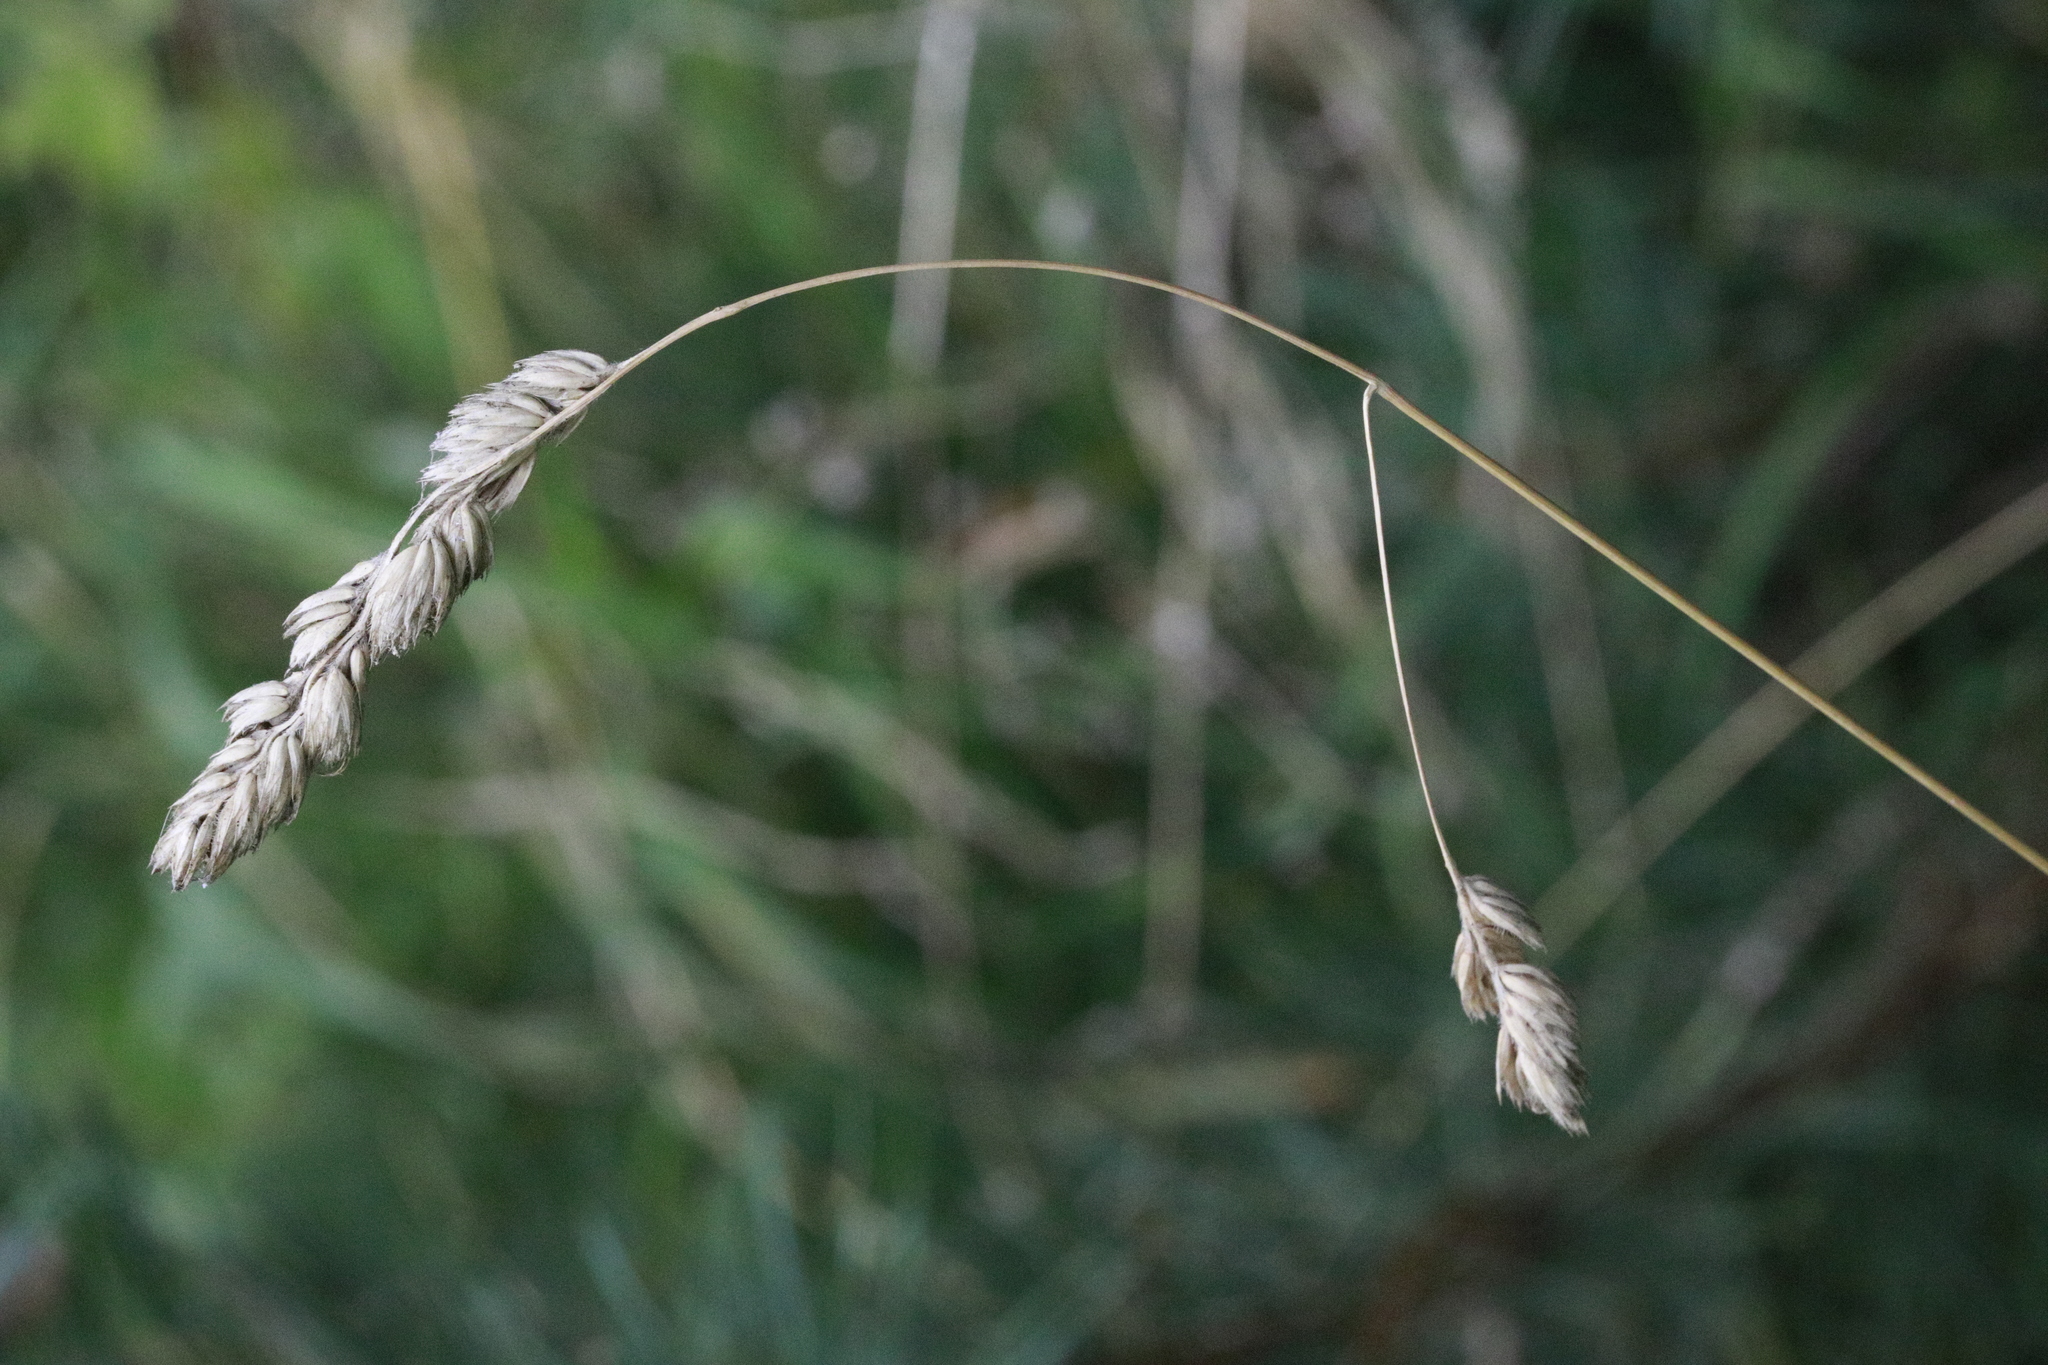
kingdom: Plantae
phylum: Tracheophyta
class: Liliopsida
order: Poales
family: Poaceae
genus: Dactylis
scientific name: Dactylis glomerata
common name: Orchardgrass
